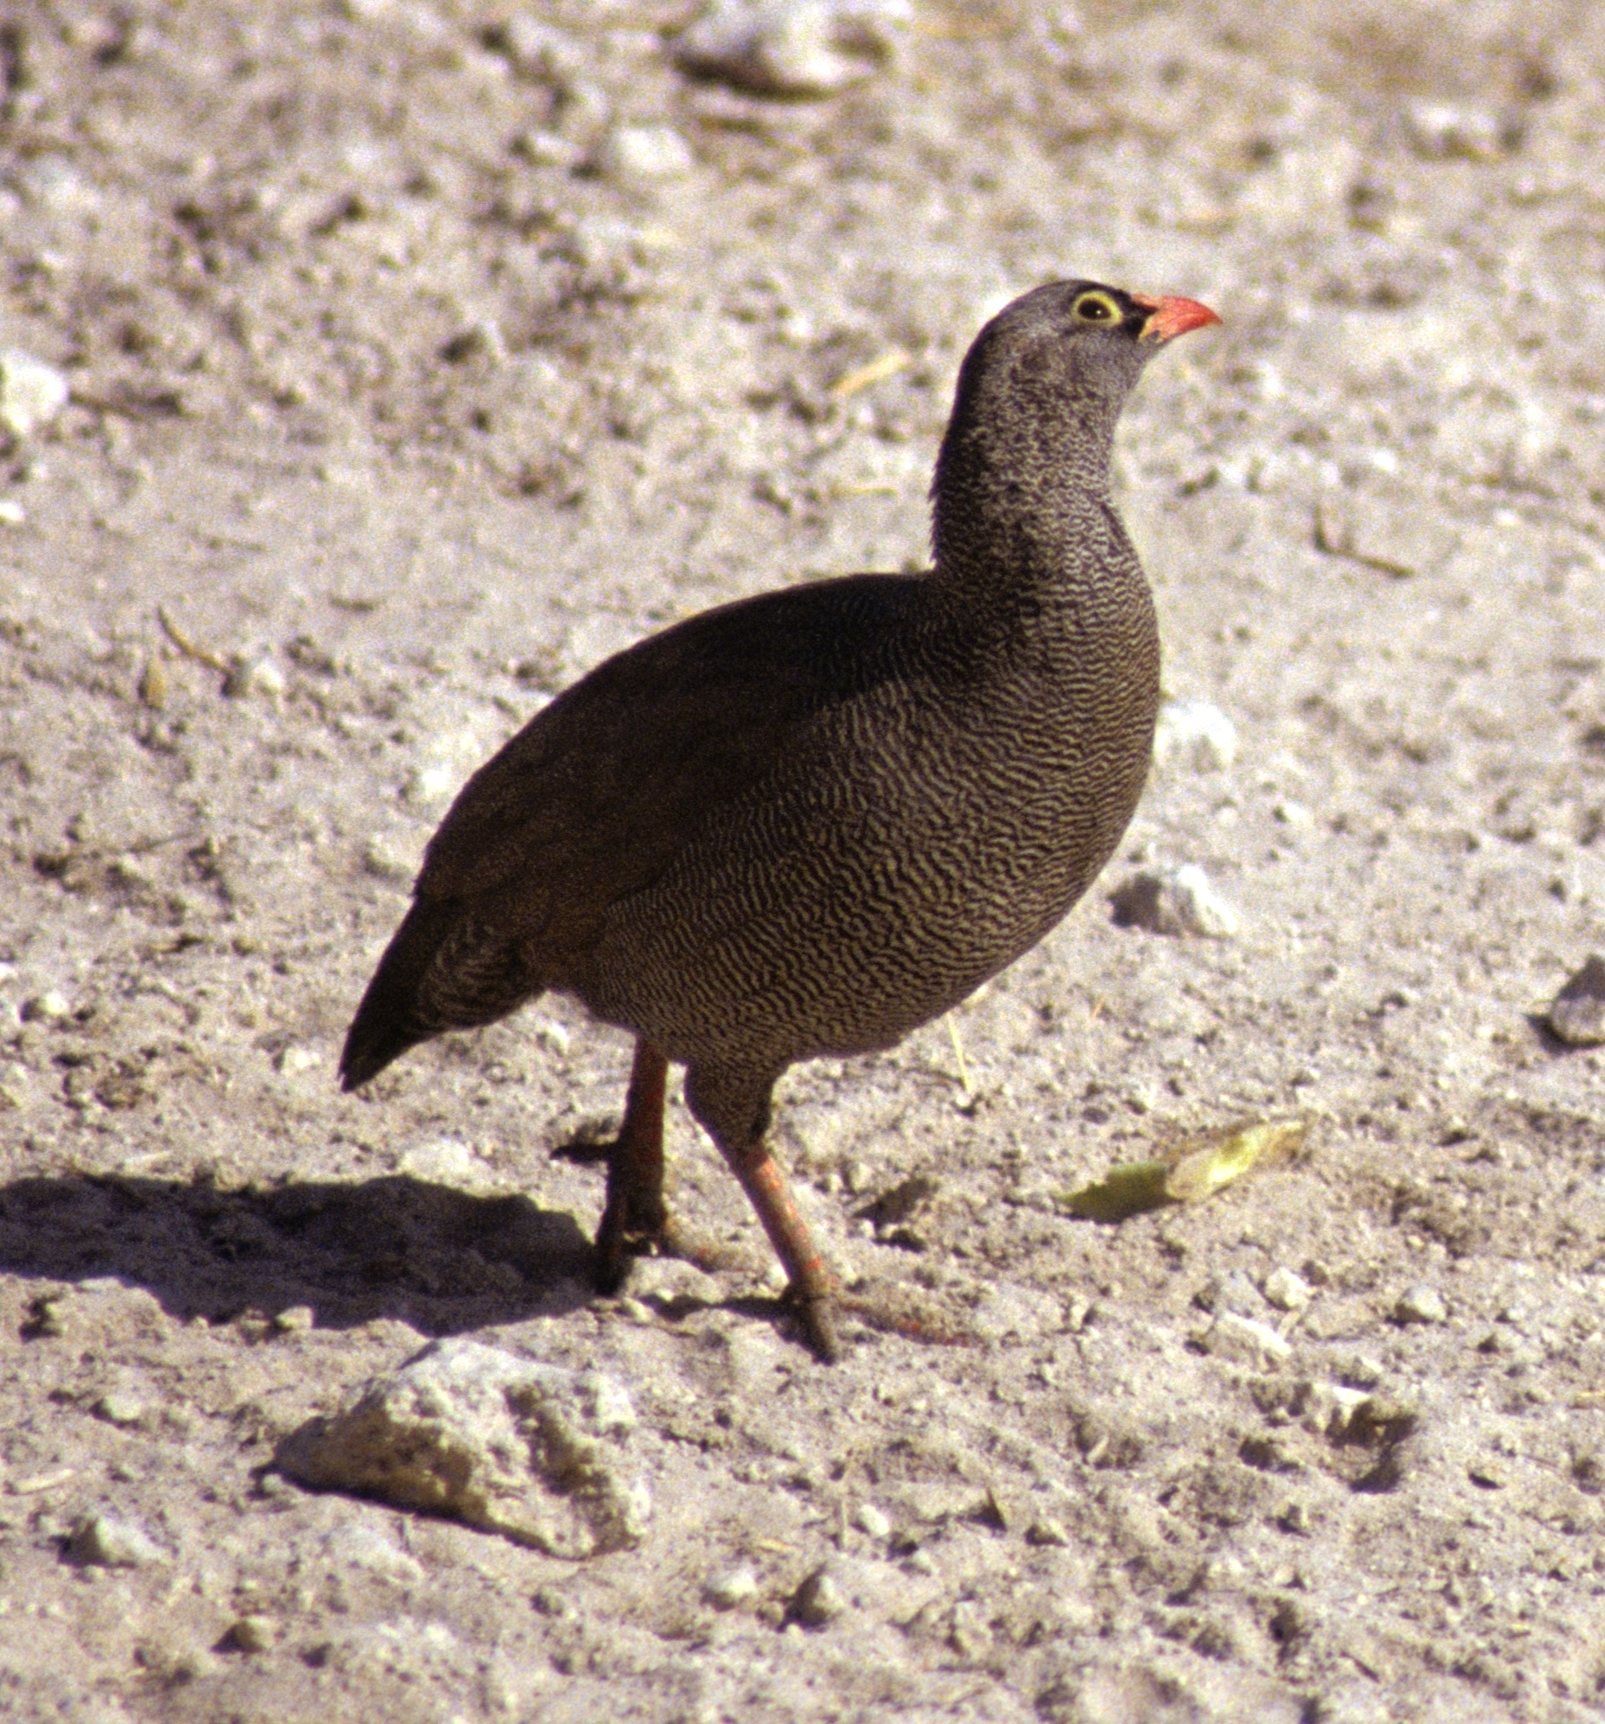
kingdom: Animalia
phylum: Chordata
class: Aves
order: Galliformes
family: Phasianidae
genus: Pternistis
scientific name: Pternistis adspersus
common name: Red-billed spurfowl
